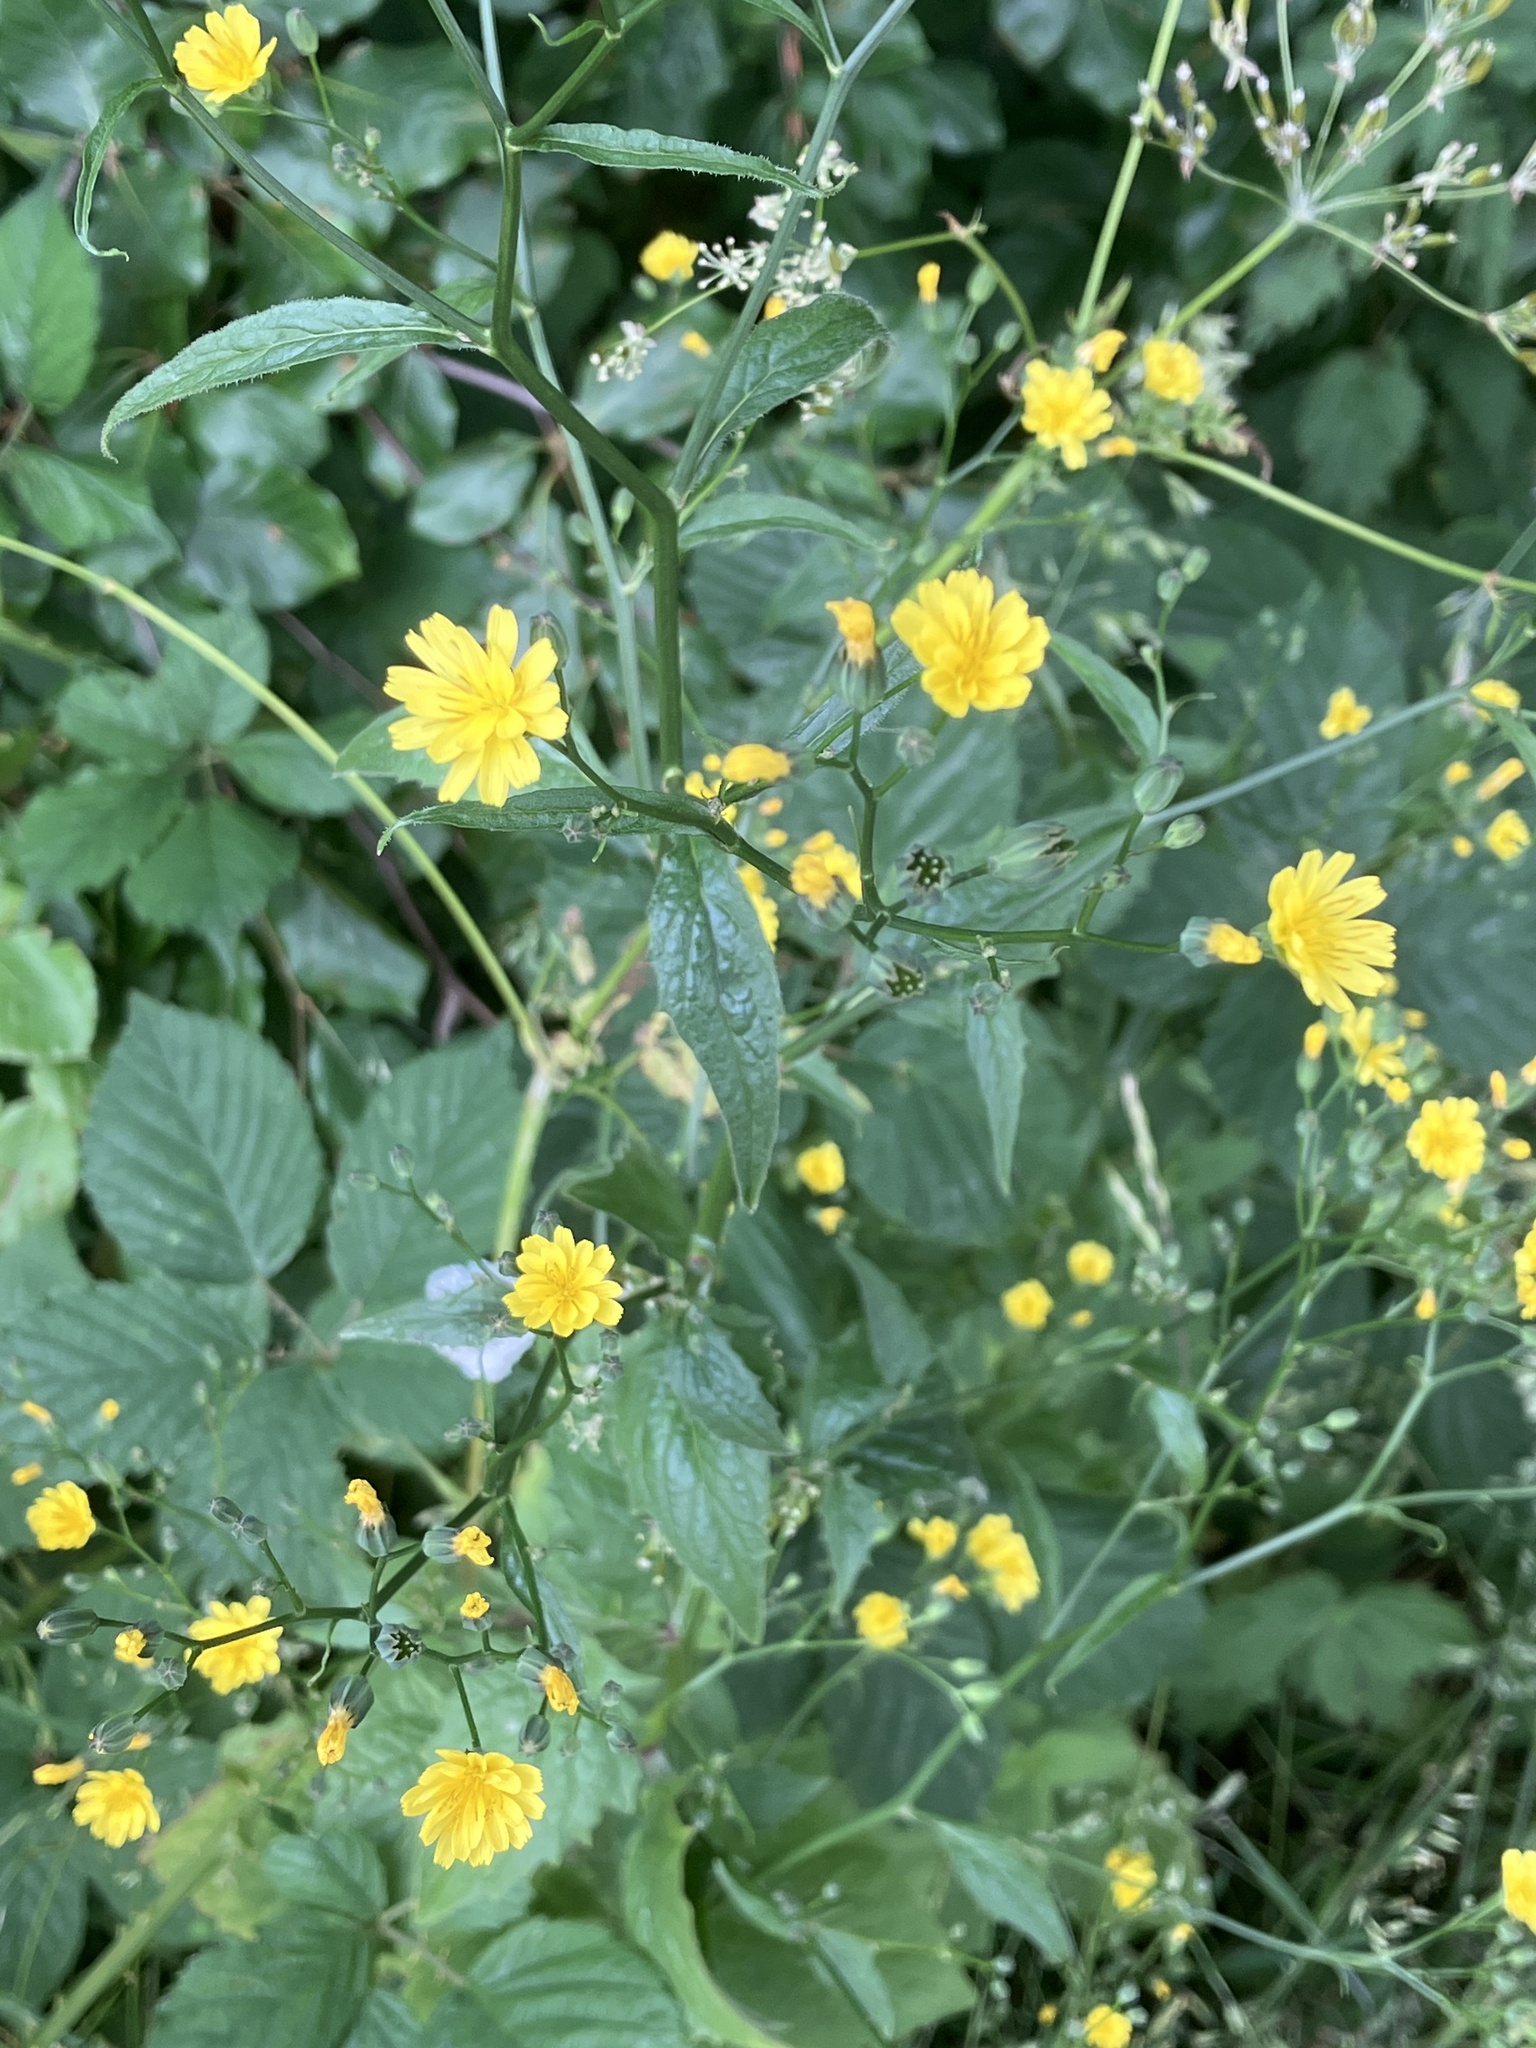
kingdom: Plantae
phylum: Tracheophyta
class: Magnoliopsida
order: Asterales
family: Asteraceae
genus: Lapsana
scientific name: Lapsana communis
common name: Nipplewort
